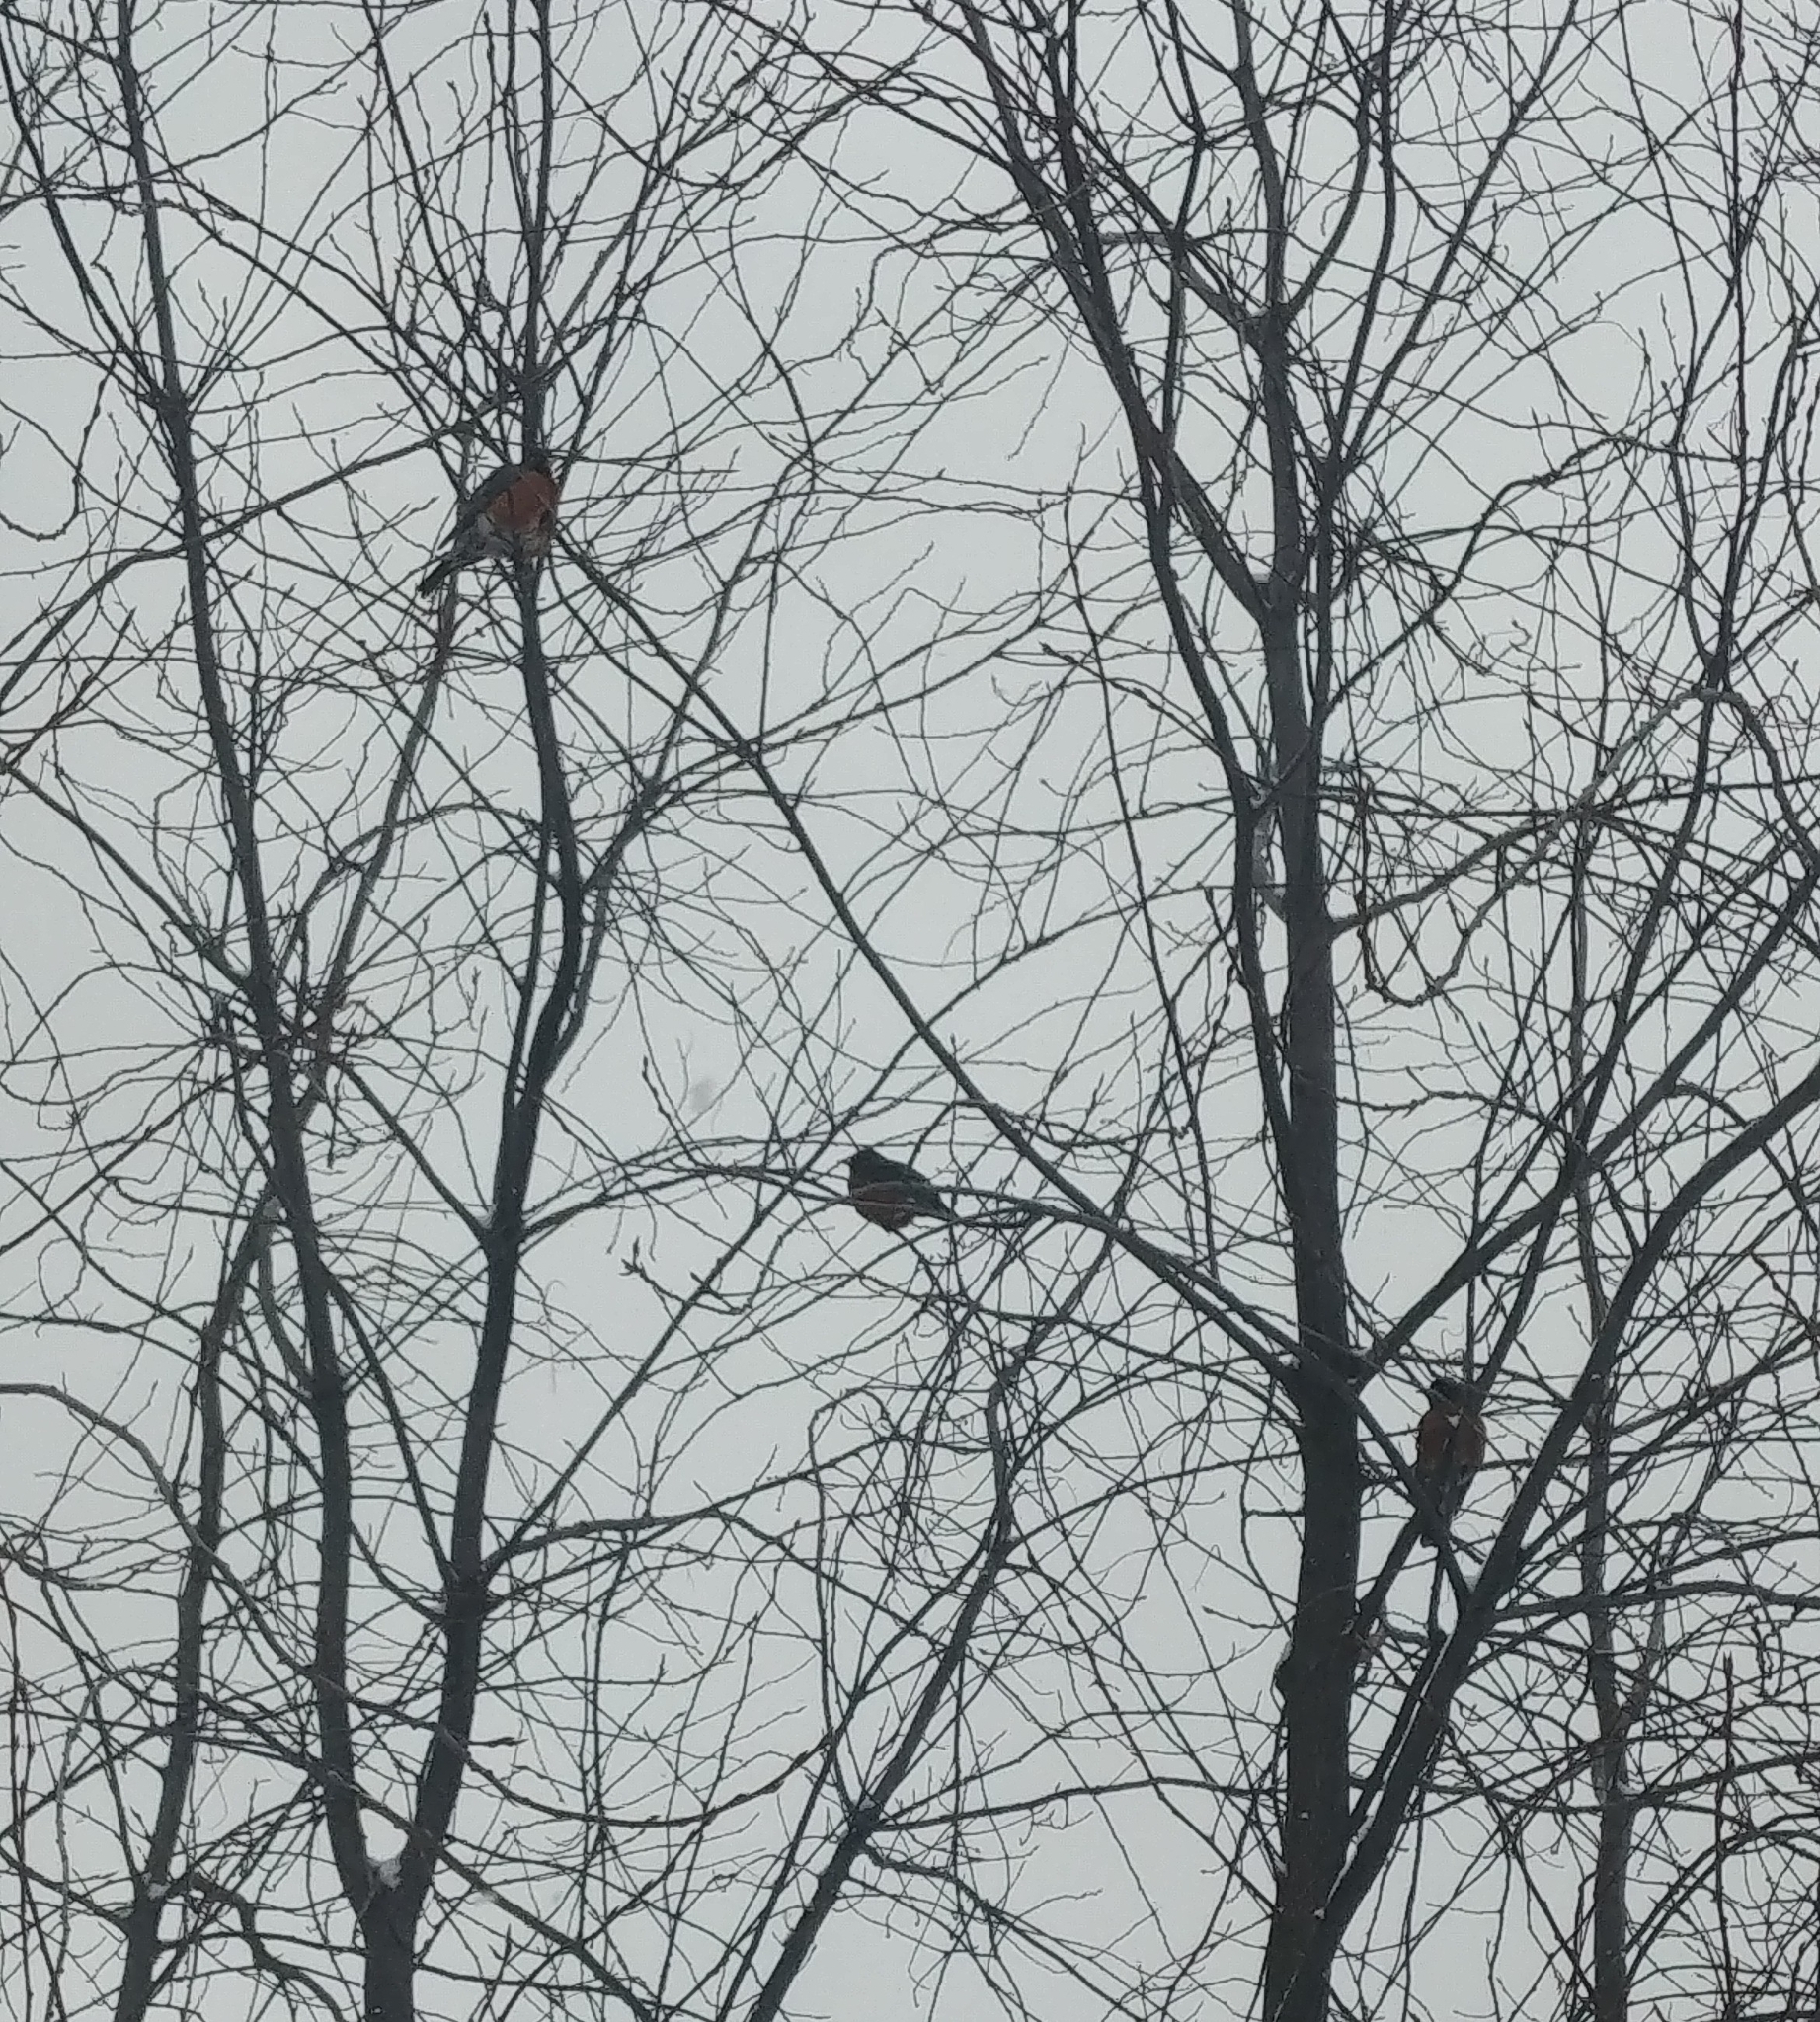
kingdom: Animalia
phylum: Chordata
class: Aves
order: Passeriformes
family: Turdidae
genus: Turdus
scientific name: Turdus migratorius
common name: American robin
